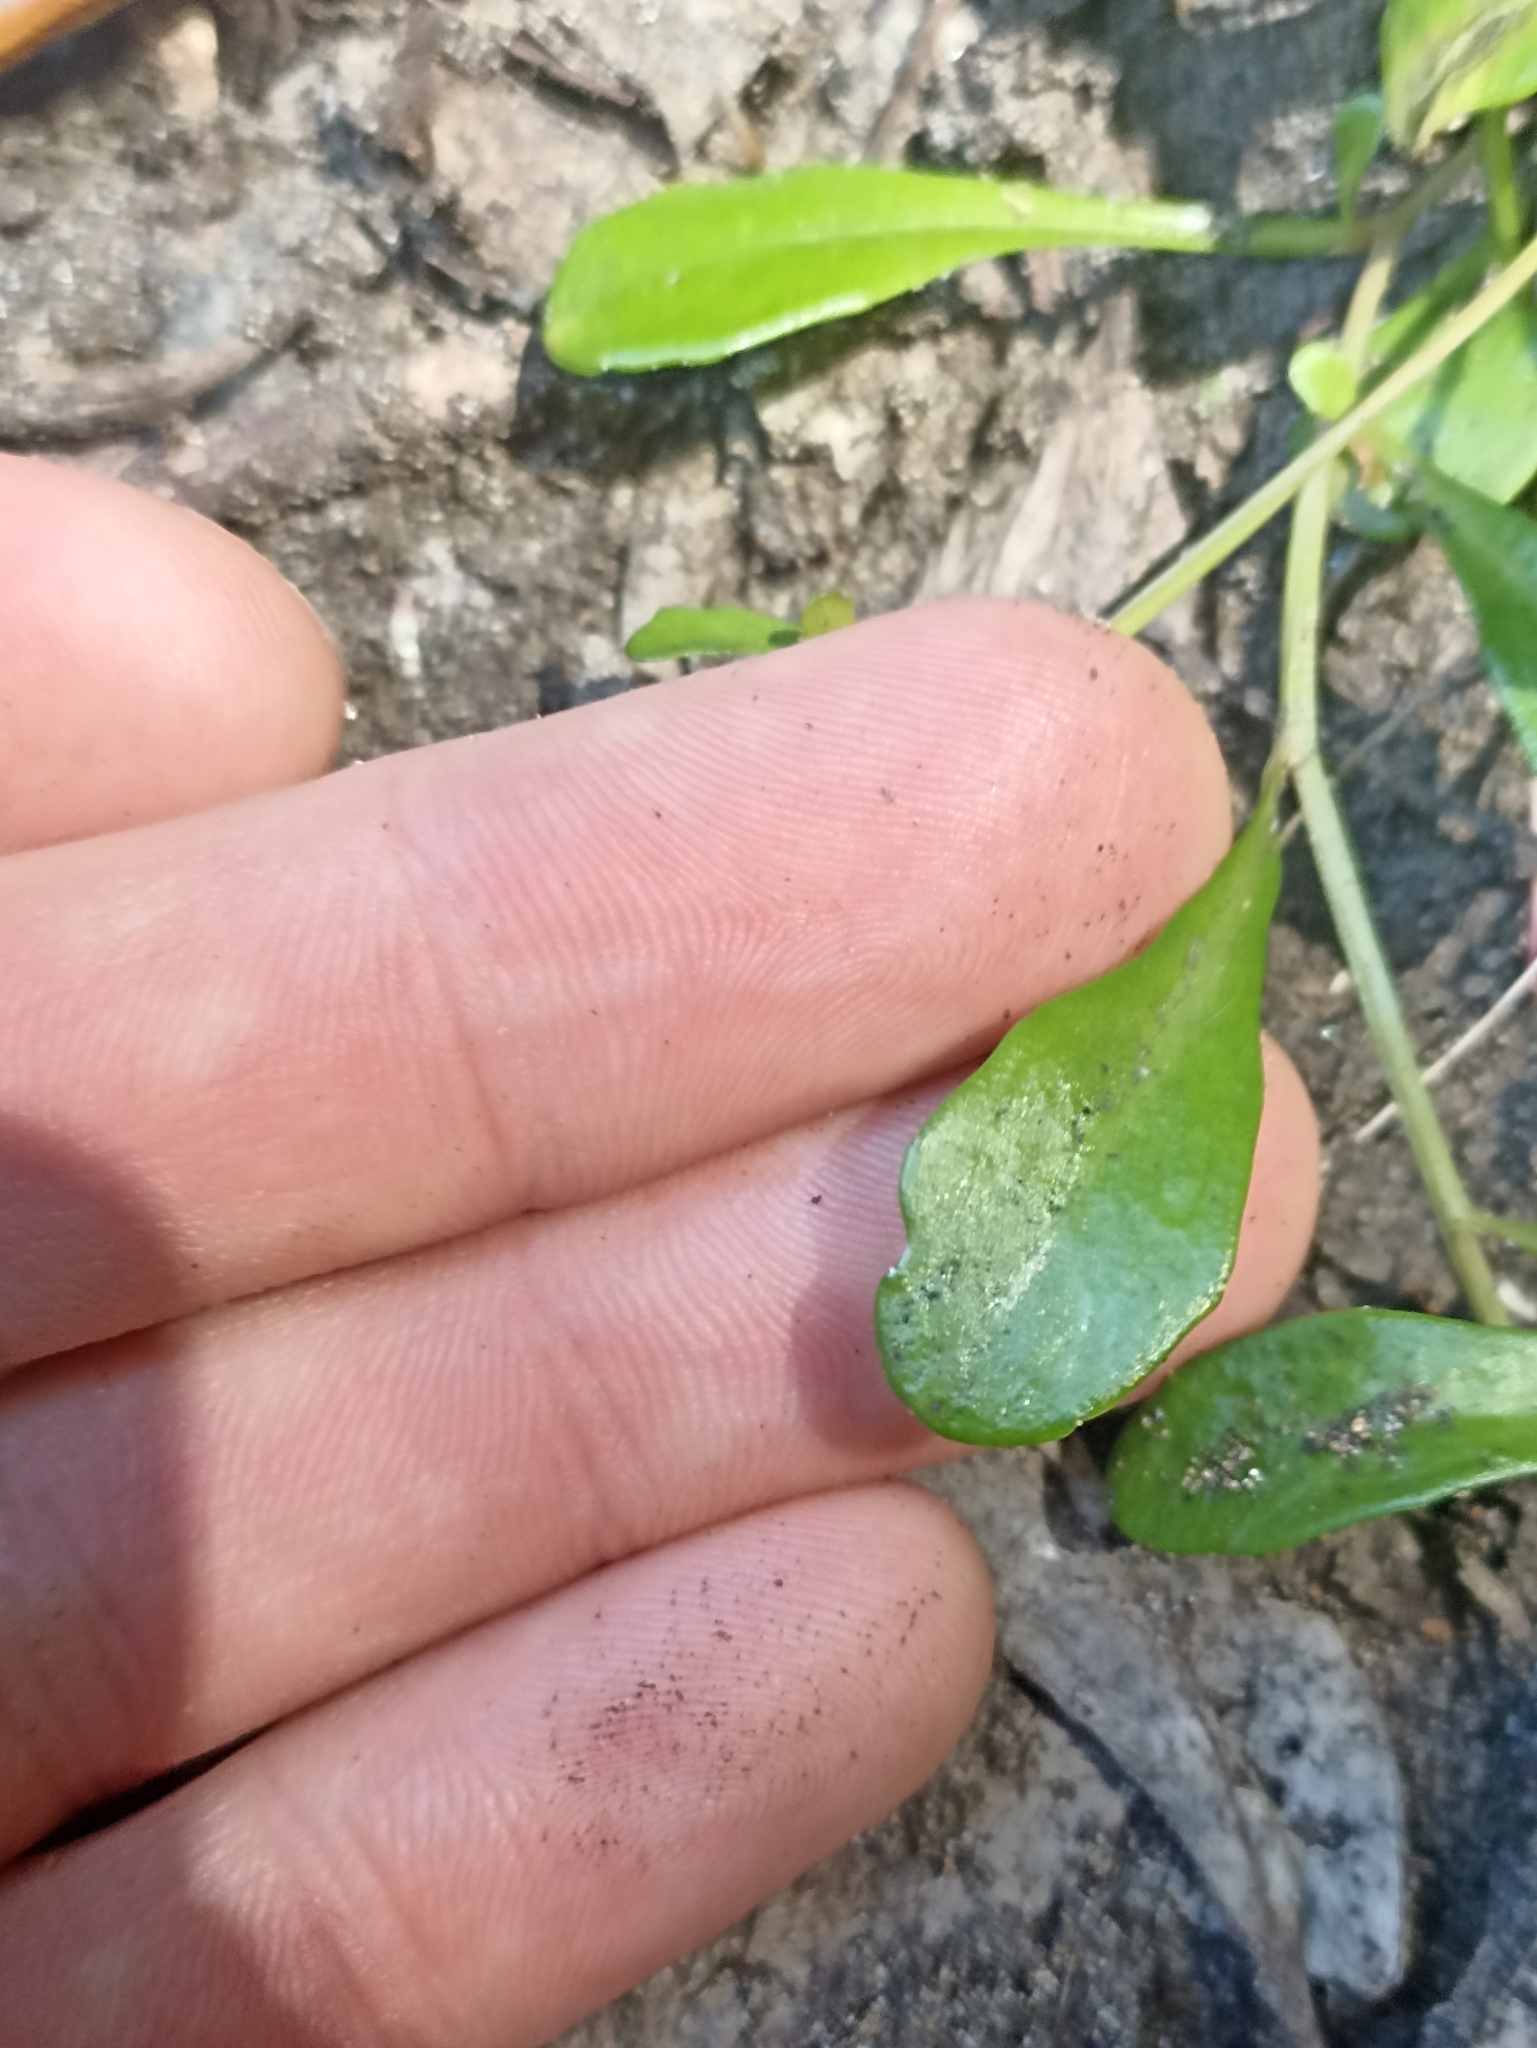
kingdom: Plantae
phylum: Tracheophyta
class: Magnoliopsida
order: Asterales
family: Campanulaceae
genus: Lobelia
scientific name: Lobelia anceps
